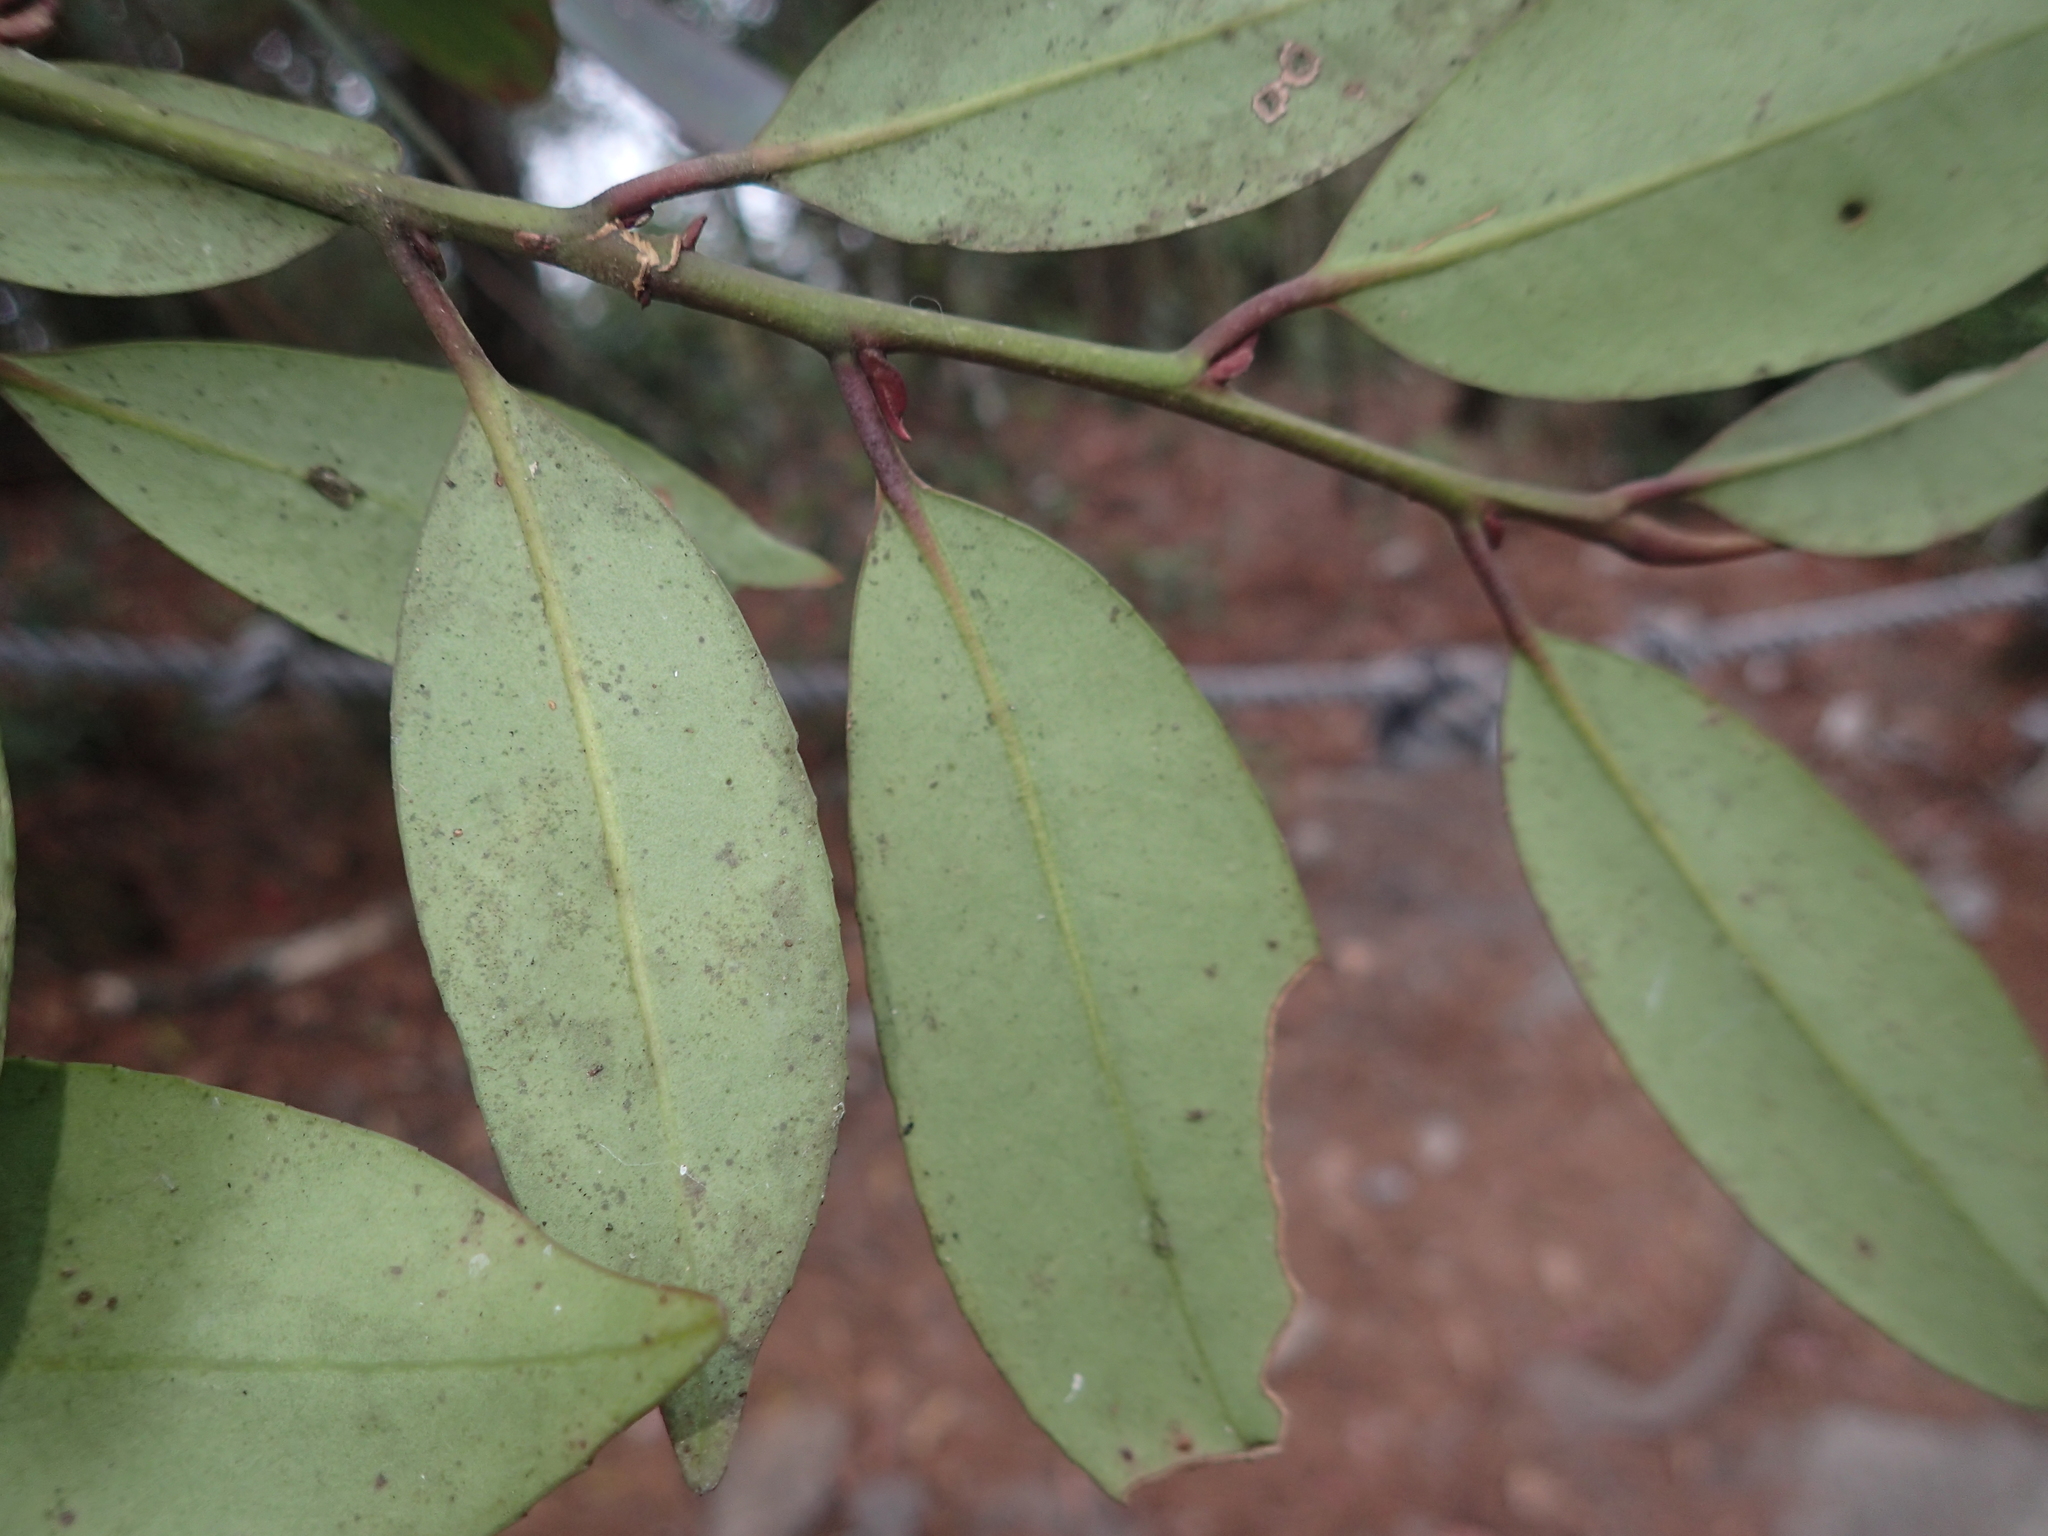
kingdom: Plantae
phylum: Tracheophyta
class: Magnoliopsida
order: Ericales
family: Pentaphylacaceae
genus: Cleyera
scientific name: Cleyera japonica
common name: Sakaki
